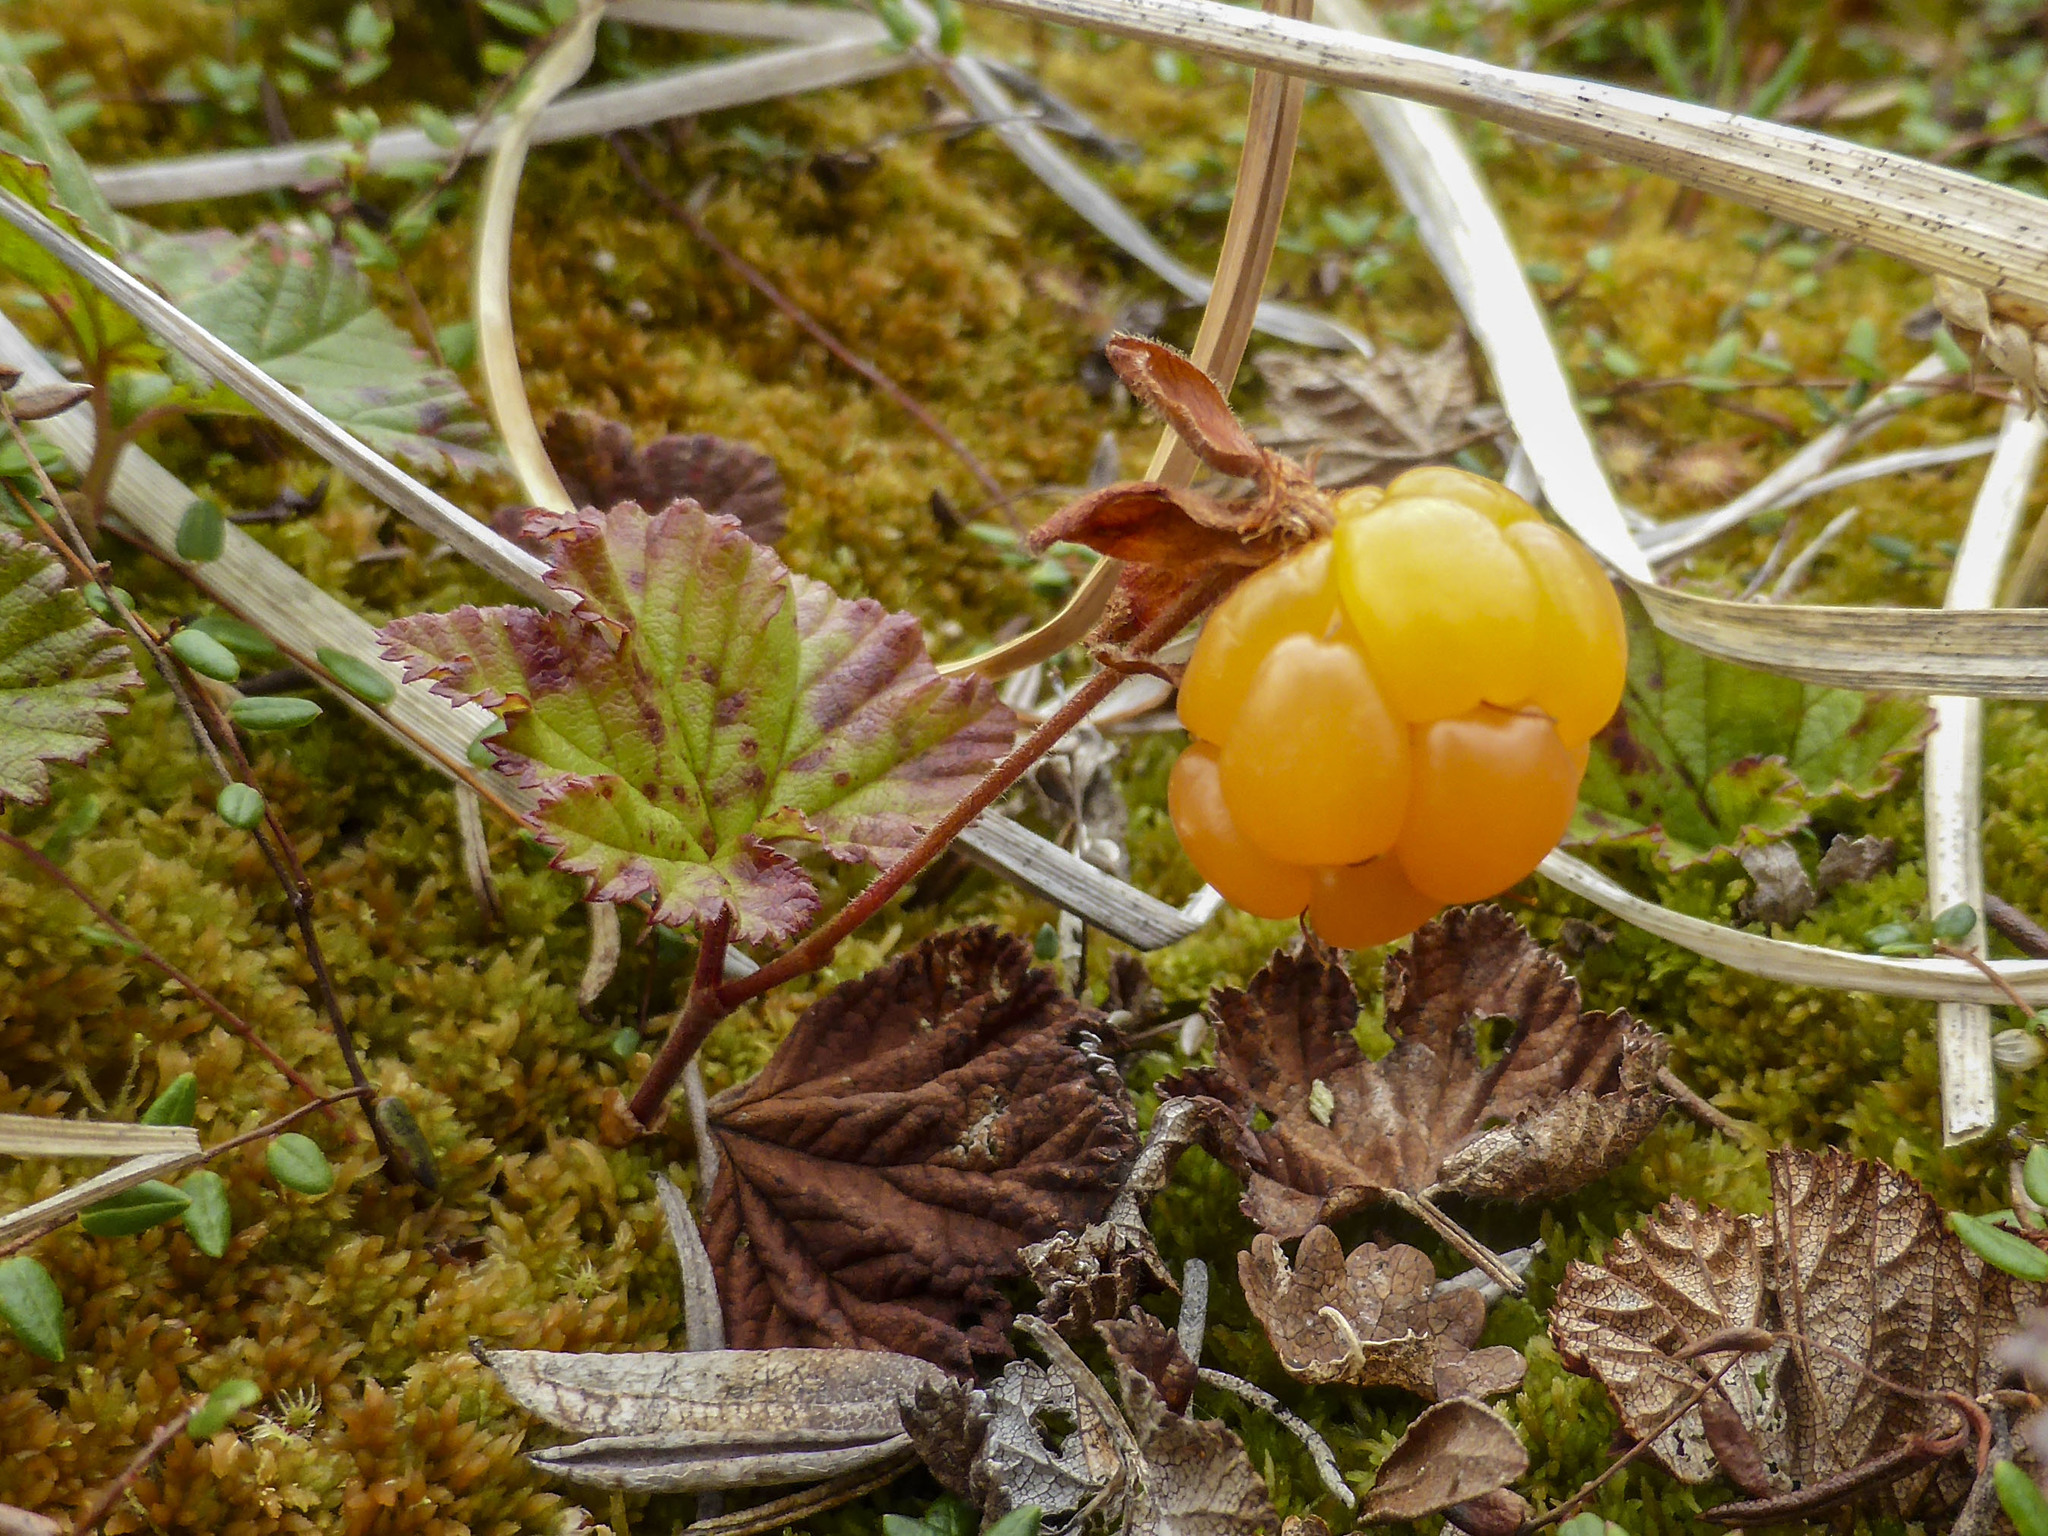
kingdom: Plantae
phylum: Tracheophyta
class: Magnoliopsida
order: Rosales
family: Rosaceae
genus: Rubus
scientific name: Rubus chamaemorus
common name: Cloudberry
